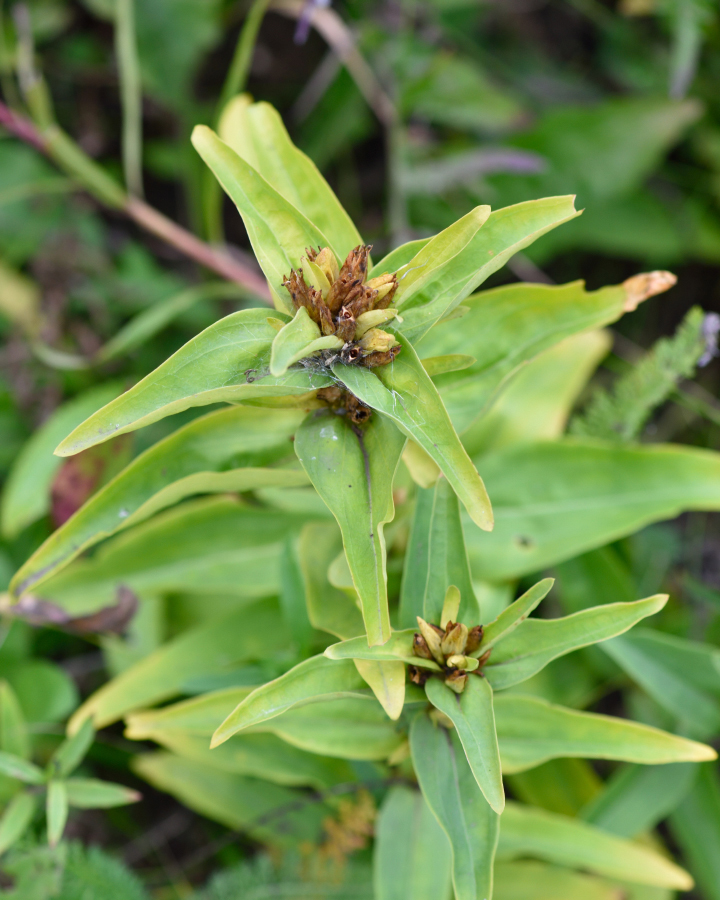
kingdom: Plantae
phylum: Tracheophyta
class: Magnoliopsida
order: Gentianales
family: Gentianaceae
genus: Gentiana
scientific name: Gentiana cruciata
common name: Cross gentian
